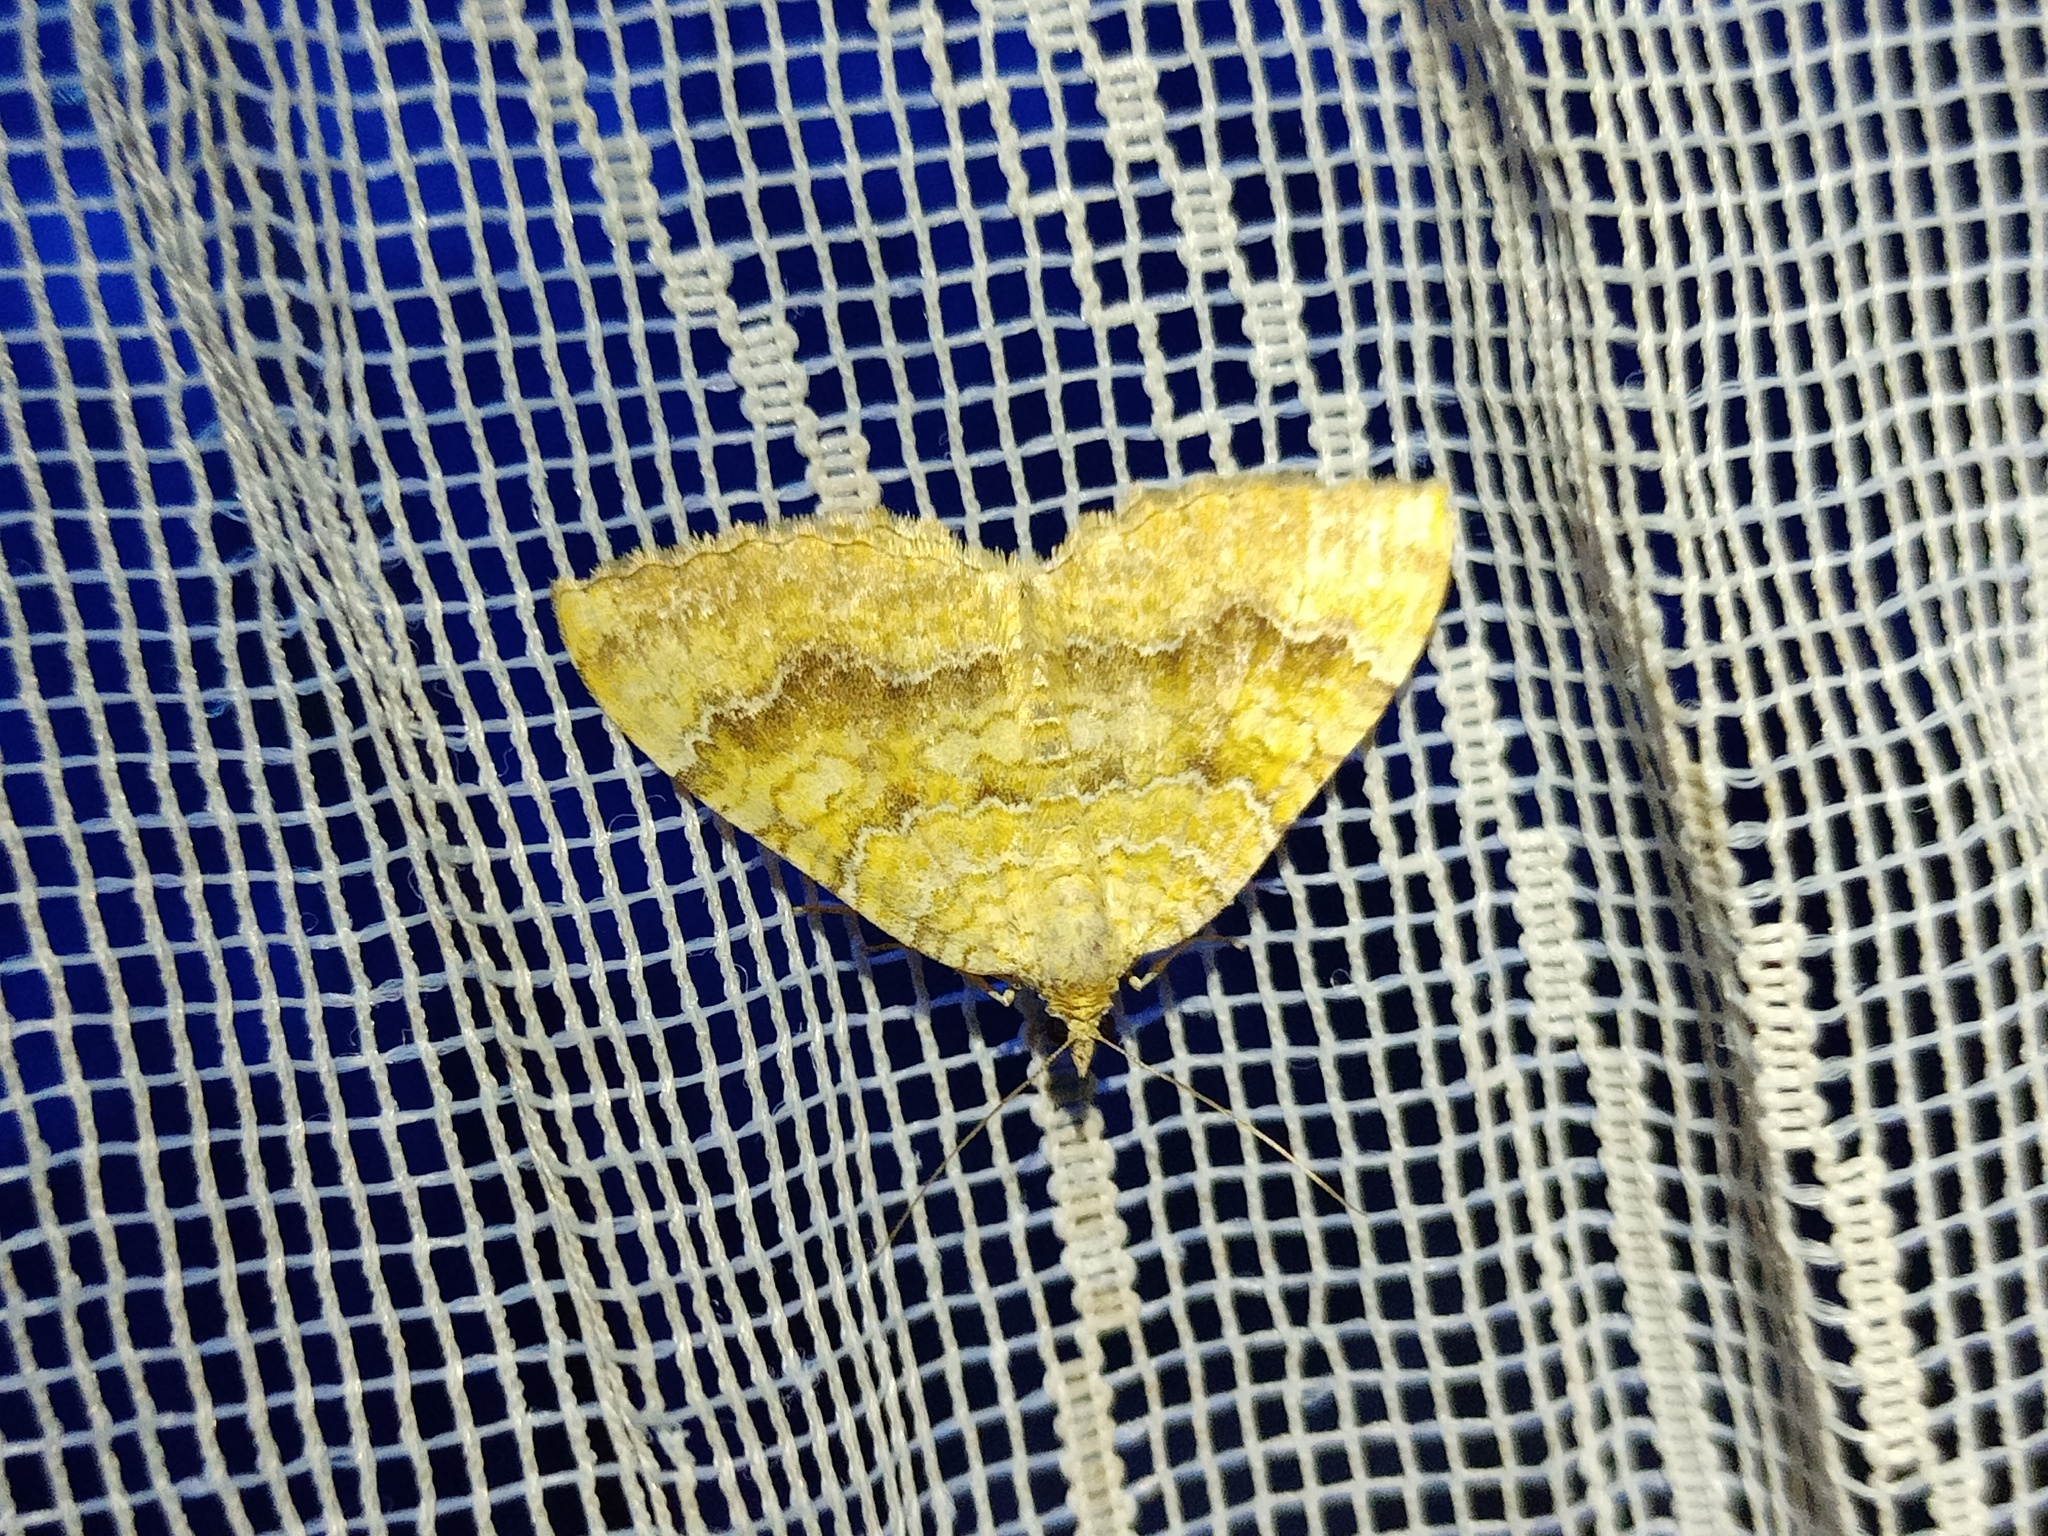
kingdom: Animalia
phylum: Arthropoda
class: Insecta
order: Lepidoptera
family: Geometridae
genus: Camptogramma
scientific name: Camptogramma bilineata
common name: Yellow shell
